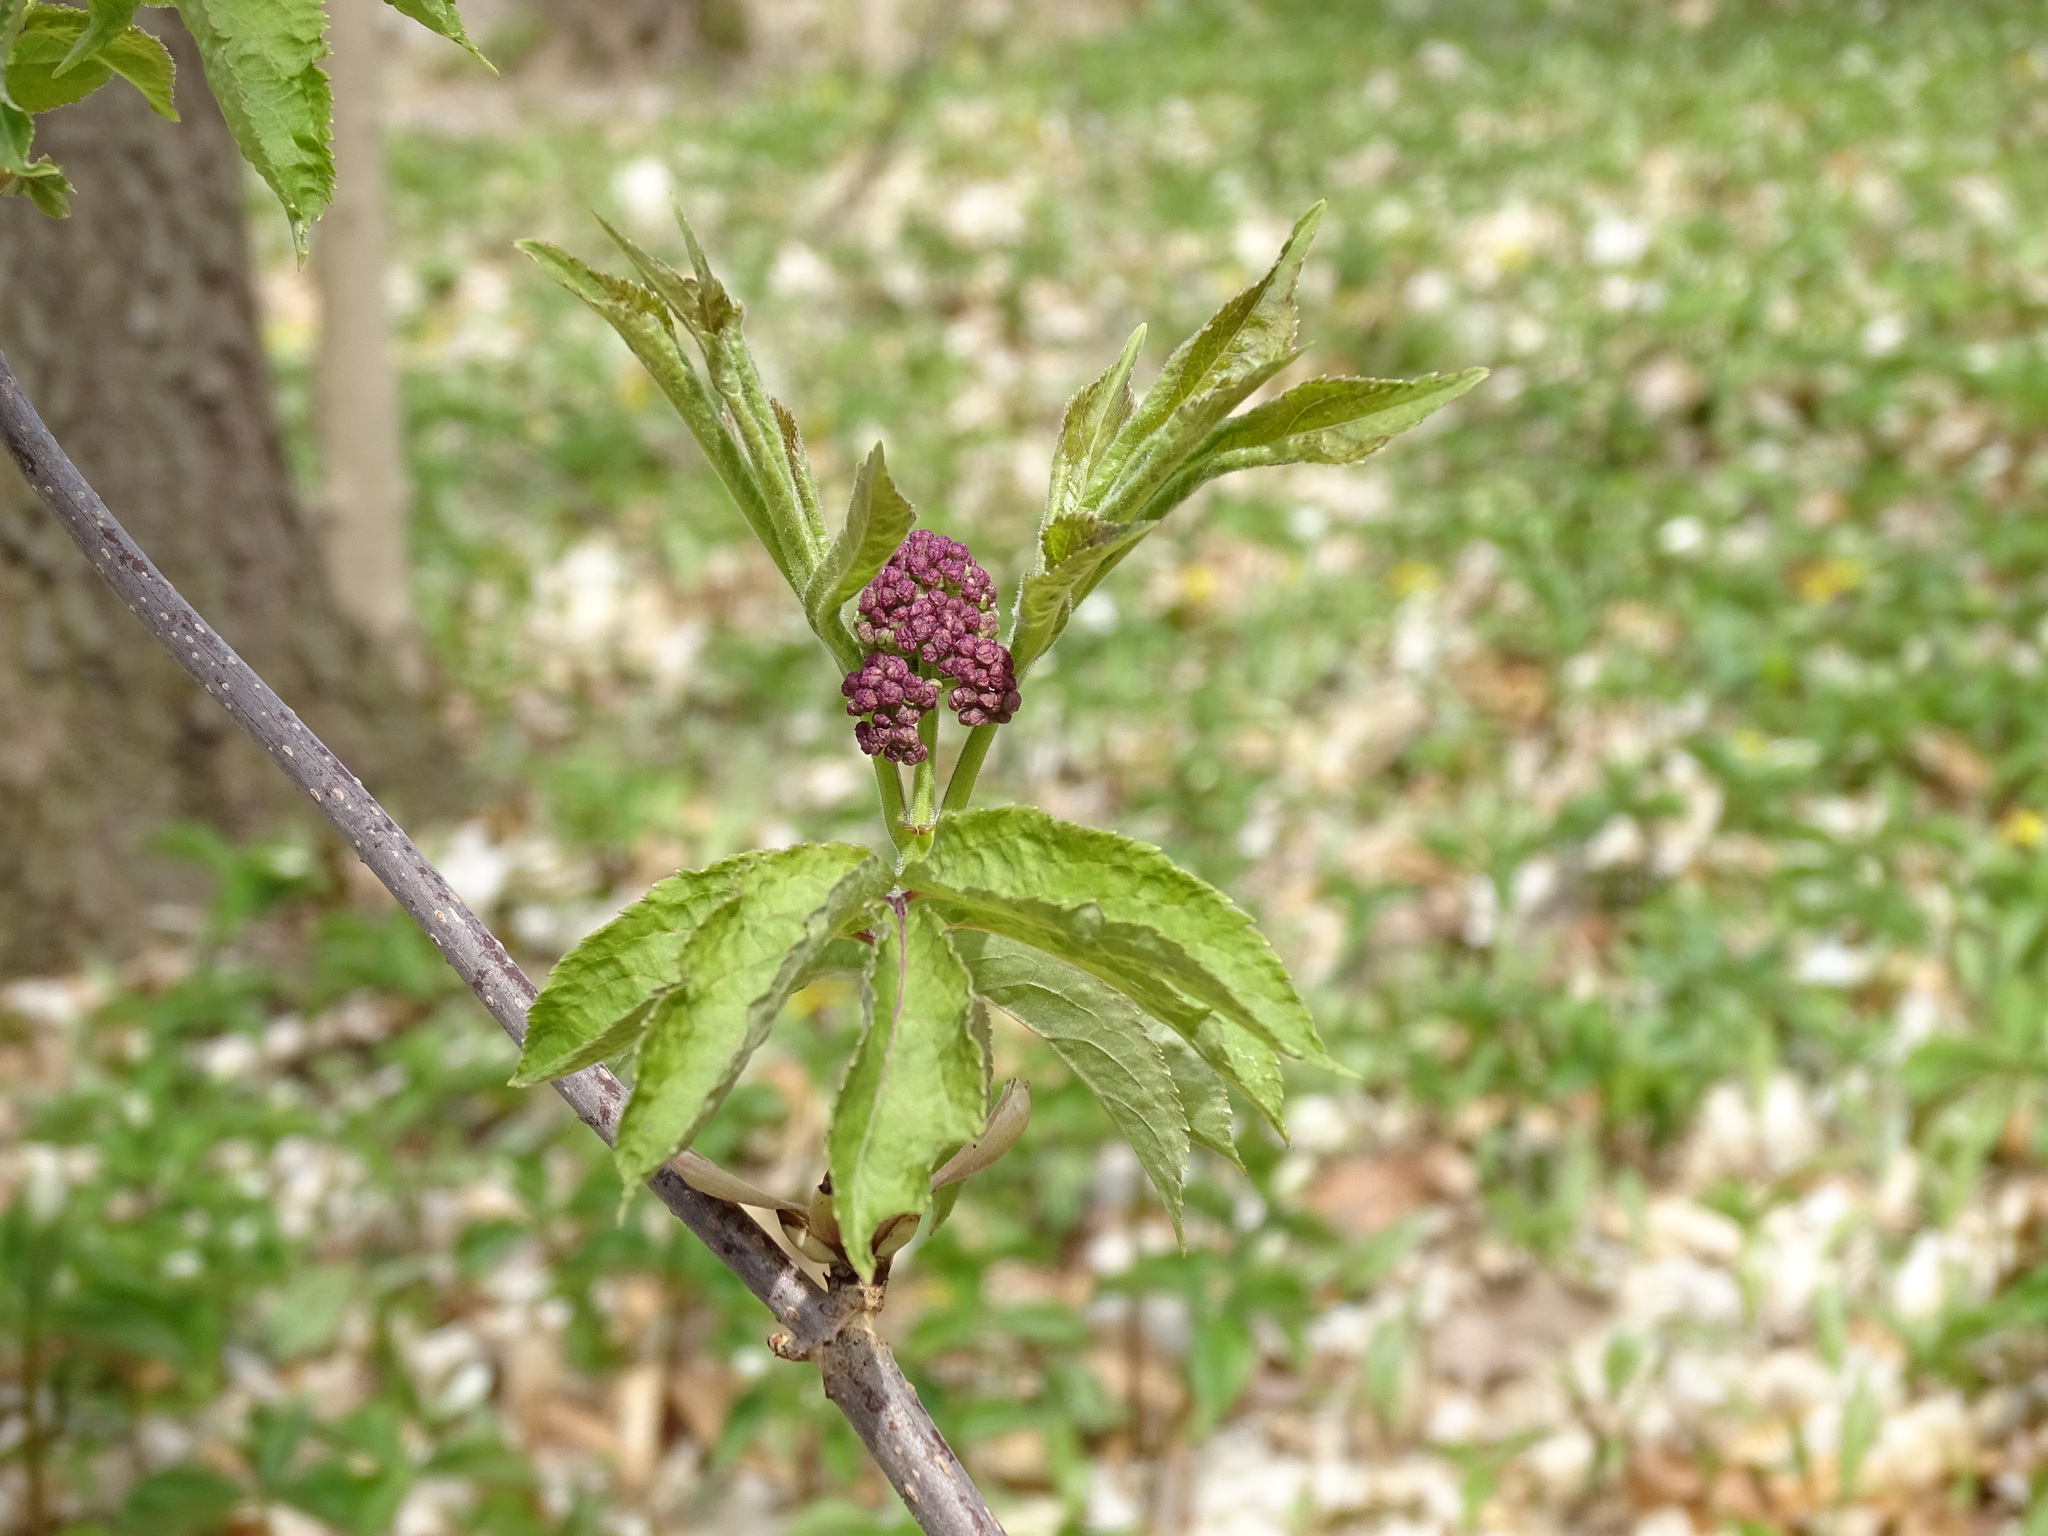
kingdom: Plantae
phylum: Tracheophyta
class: Magnoliopsida
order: Dipsacales
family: Viburnaceae
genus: Sambucus
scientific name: Sambucus racemosa
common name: Red-berried elder
